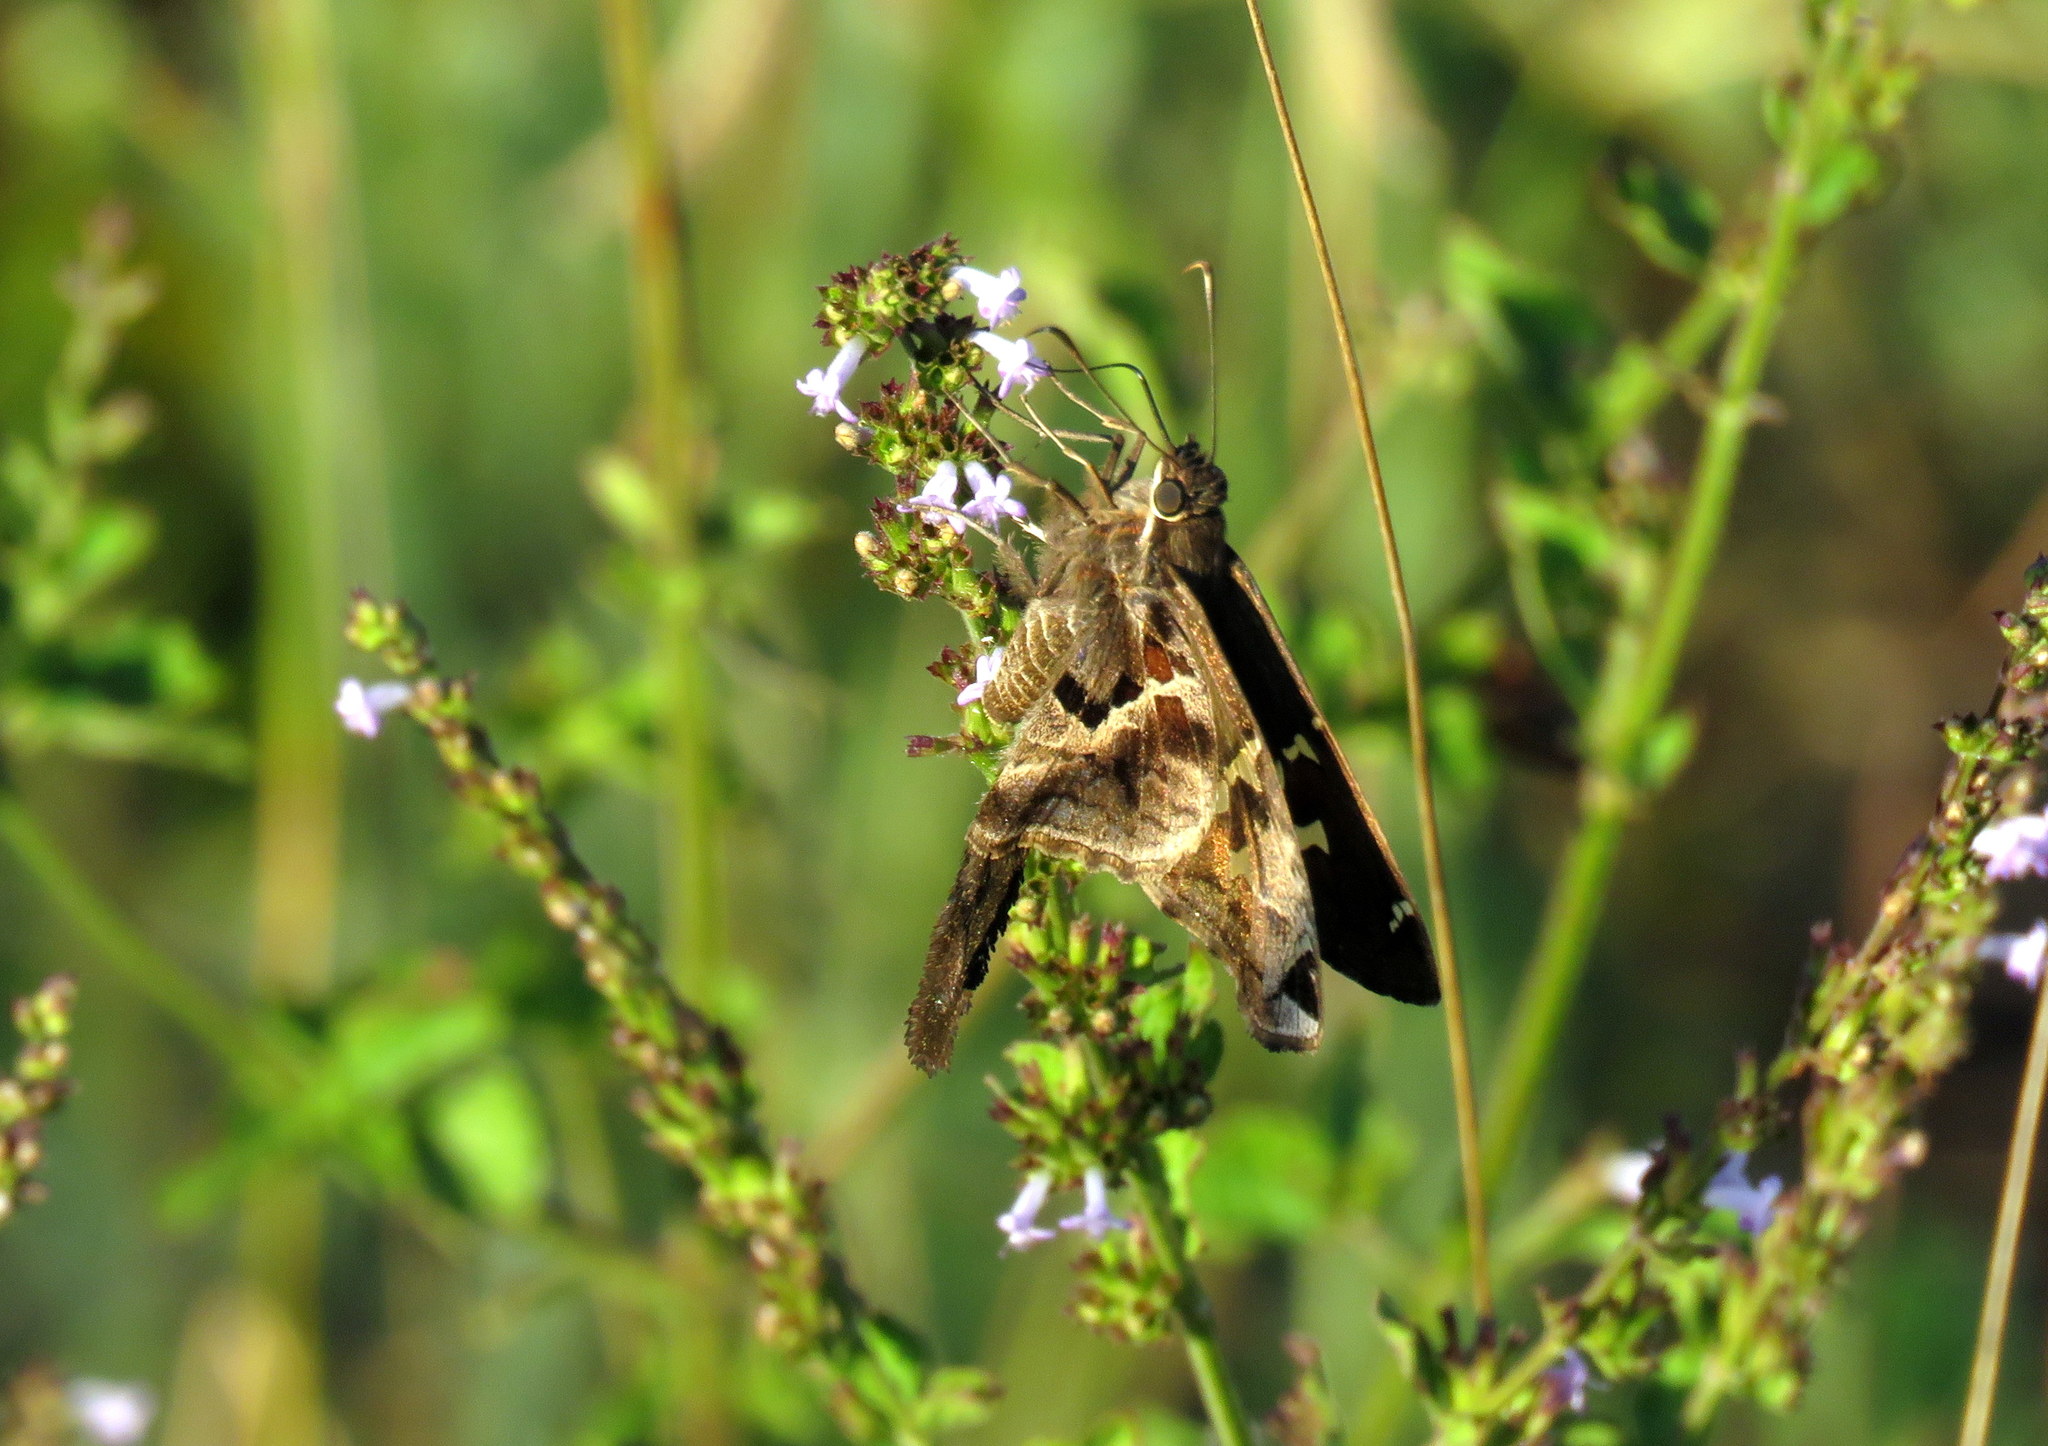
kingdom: Animalia
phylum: Arthropoda
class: Insecta
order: Lepidoptera
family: Hesperiidae
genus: Chioides
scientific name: Chioides catillus
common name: Silverbanded skipper
